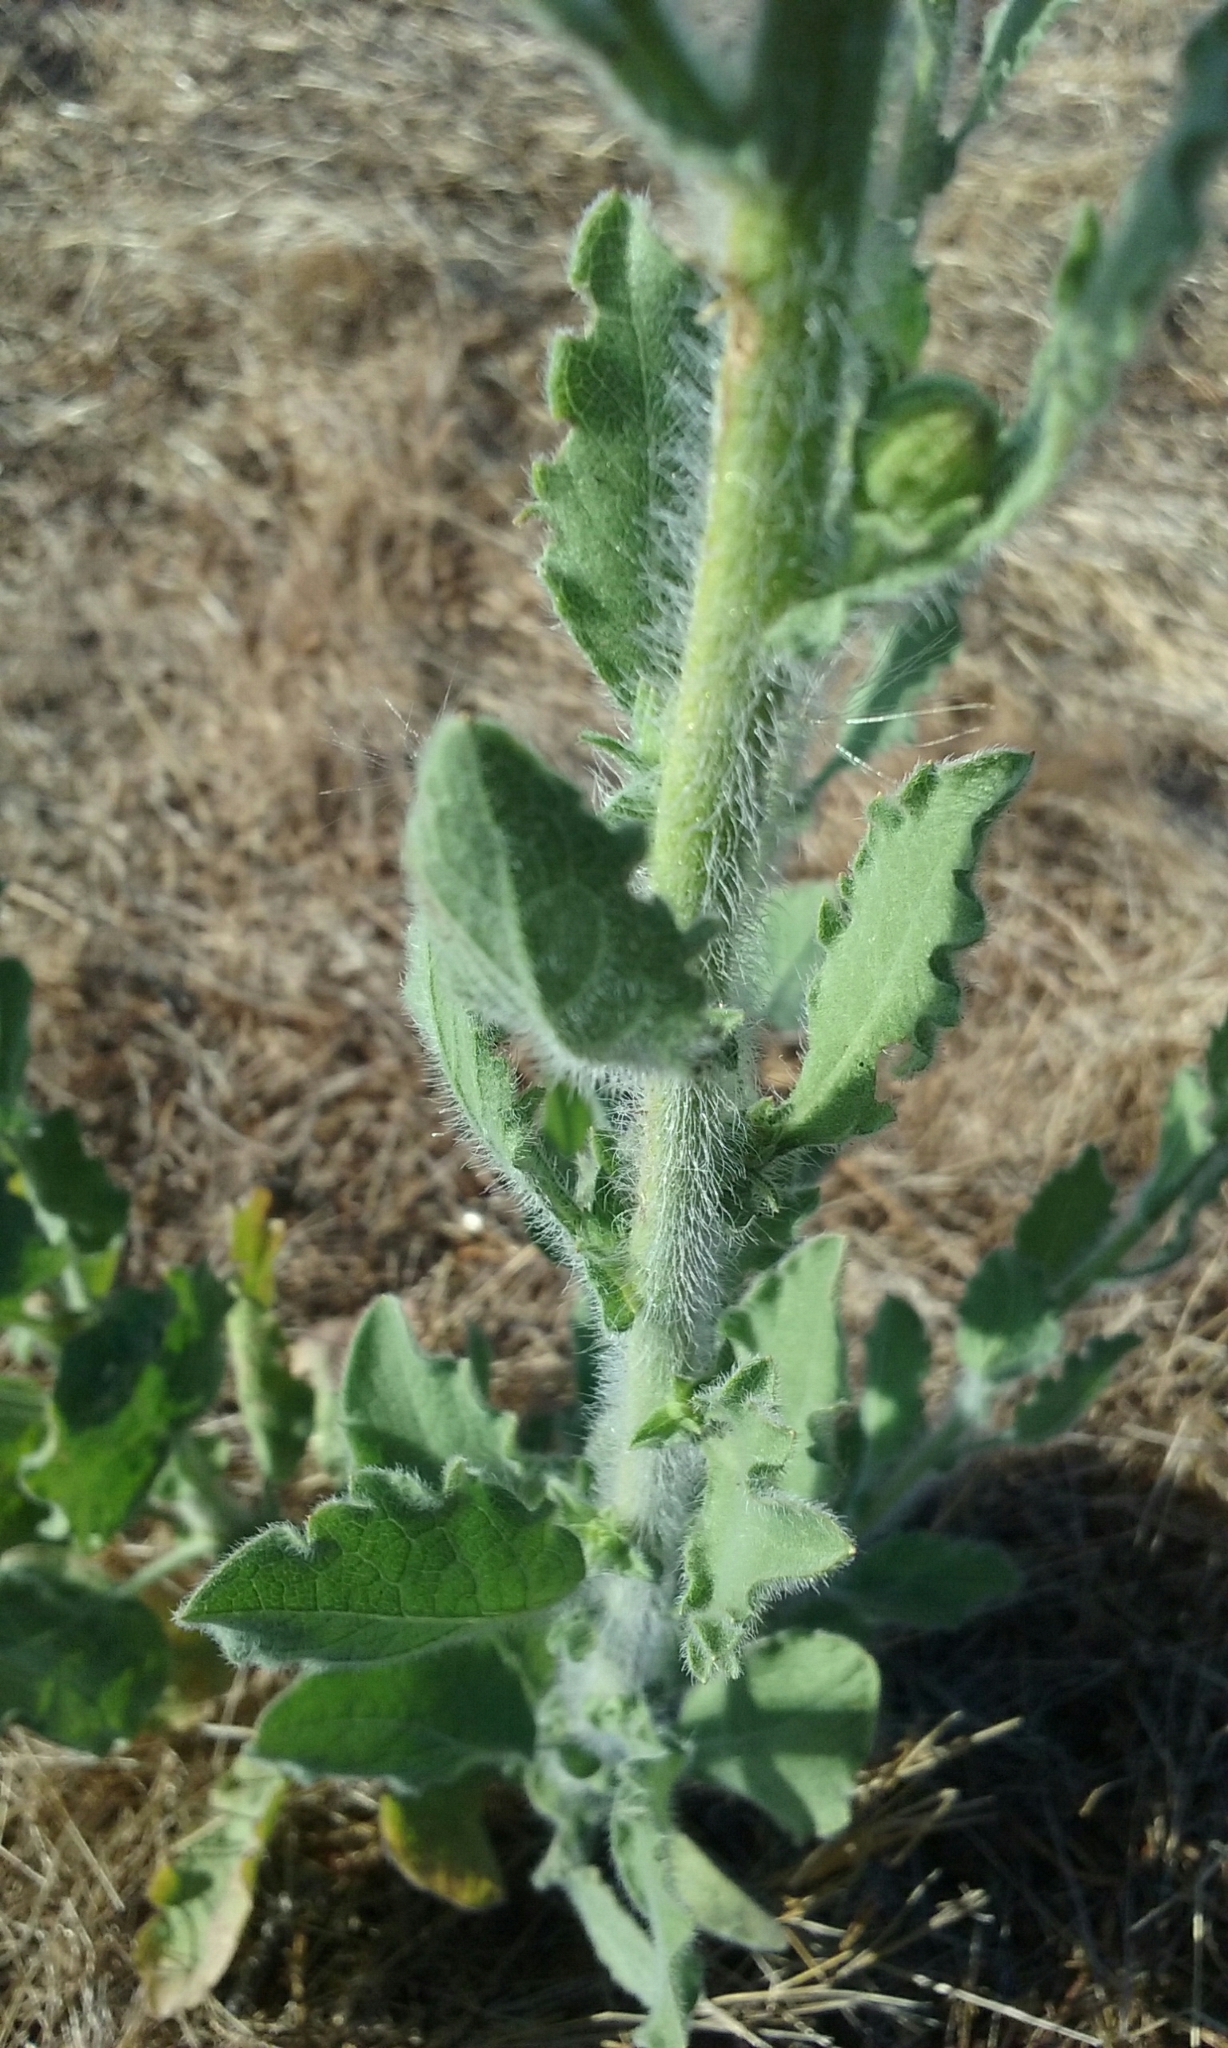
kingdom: Plantae
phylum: Tracheophyta
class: Magnoliopsida
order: Asterales
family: Asteraceae
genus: Heterotheca
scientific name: Heterotheca grandiflora
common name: Telegraphweed
